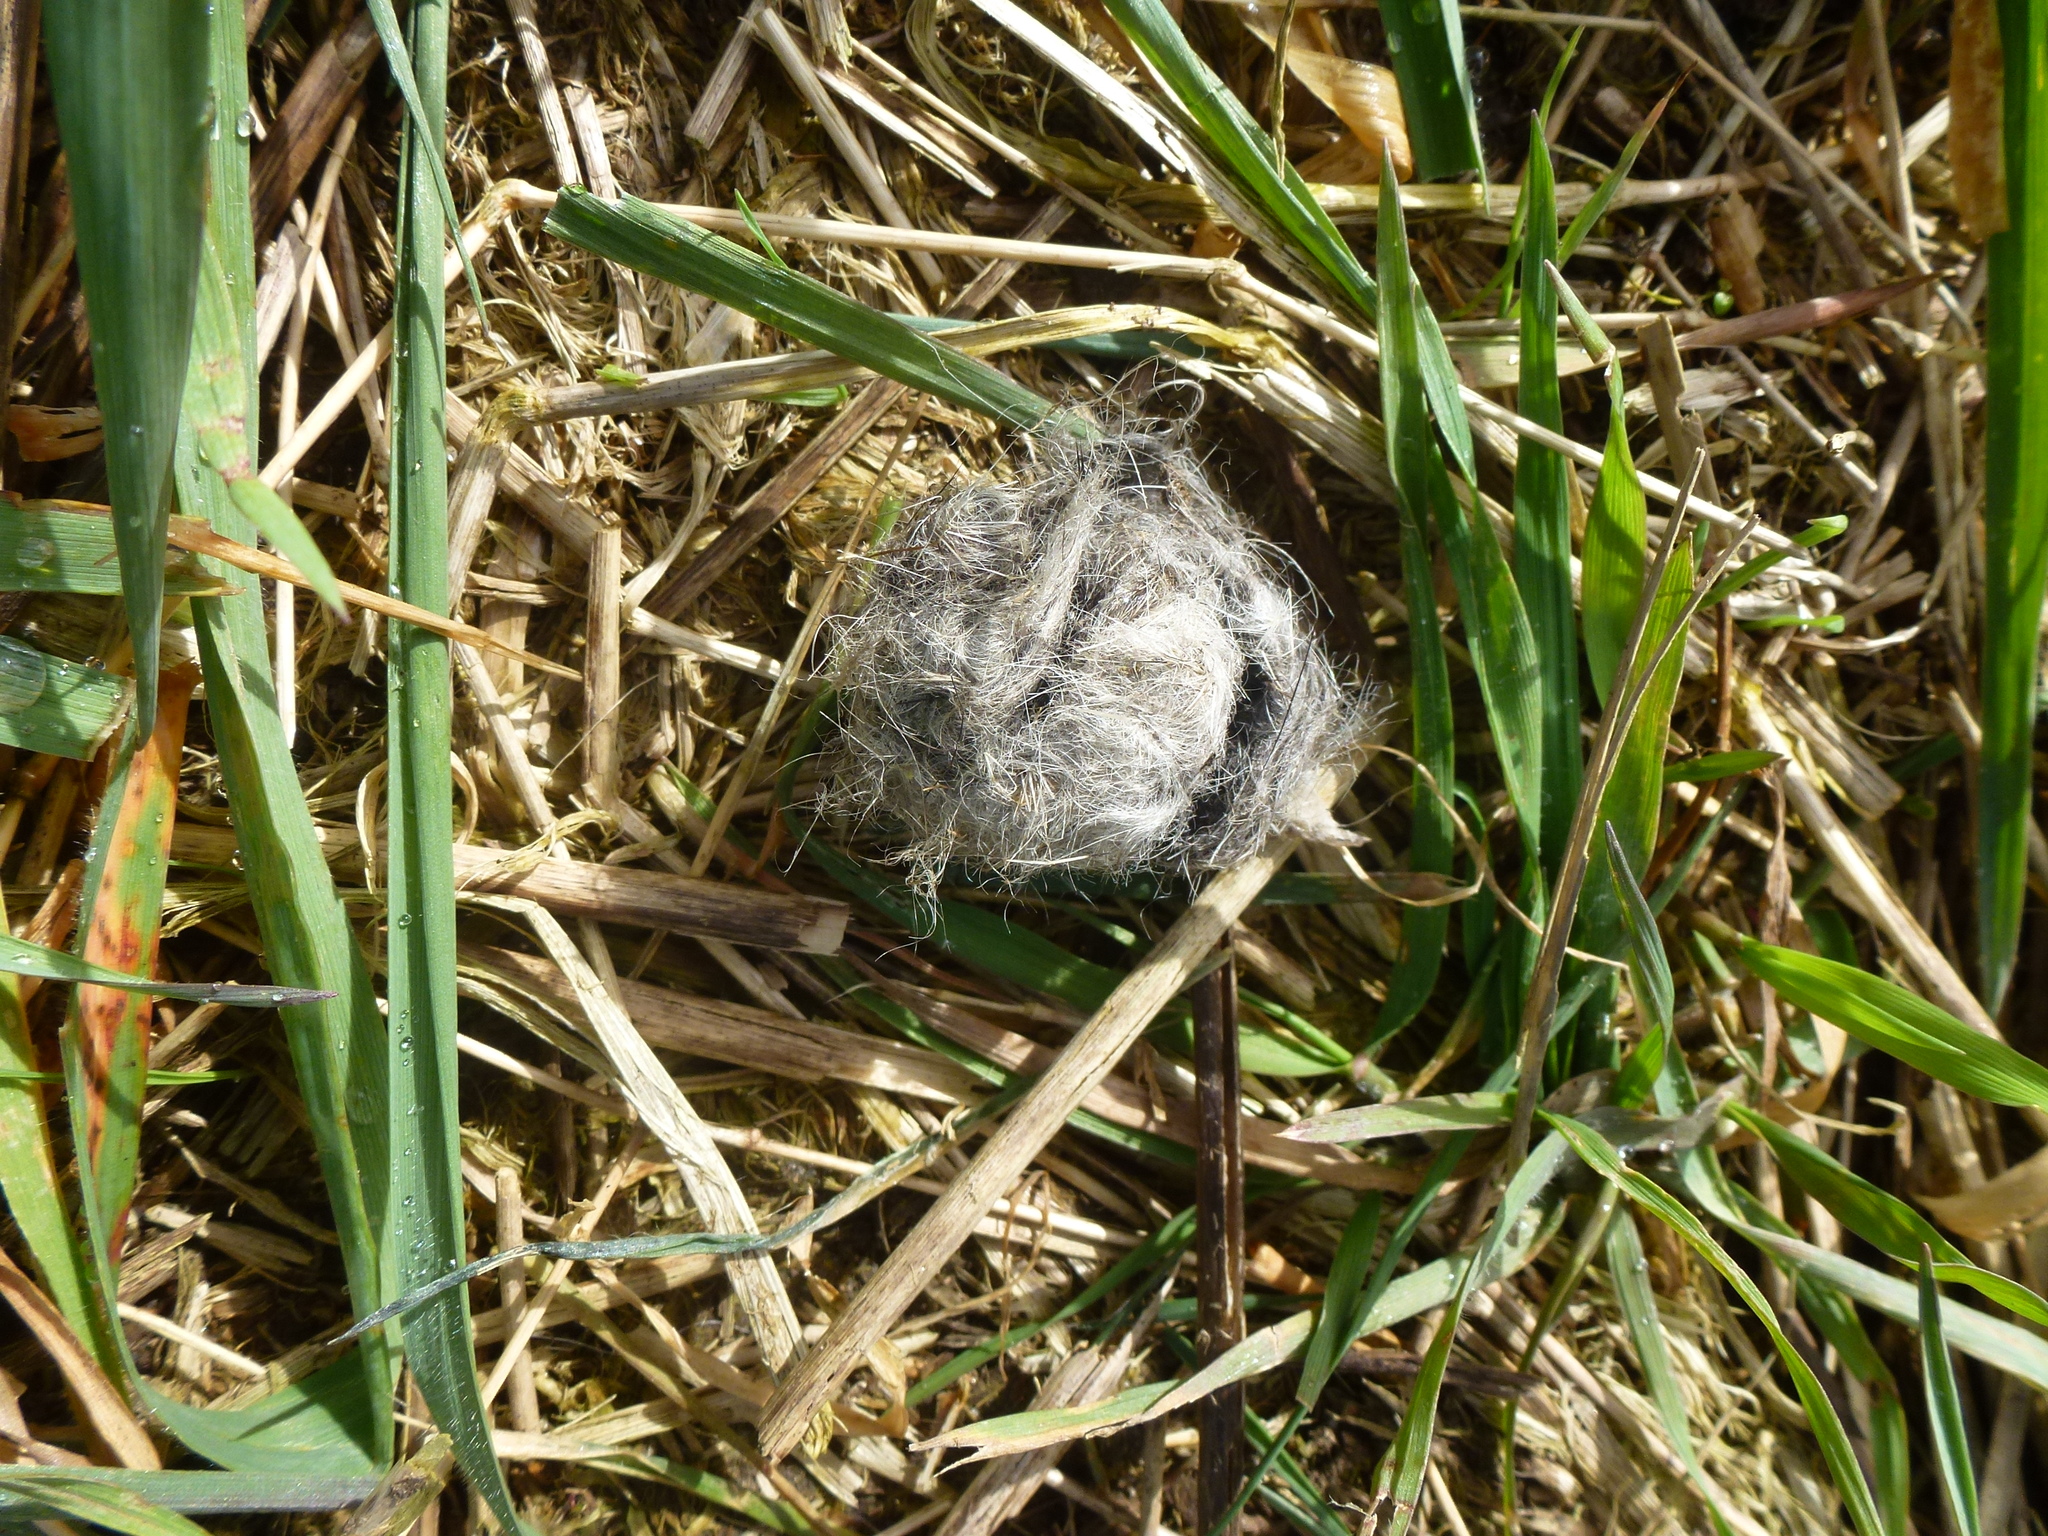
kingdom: Animalia
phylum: Chordata
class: Mammalia
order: Carnivora
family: Canidae
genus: Vulpes
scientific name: Vulpes vulpes
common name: Red fox
